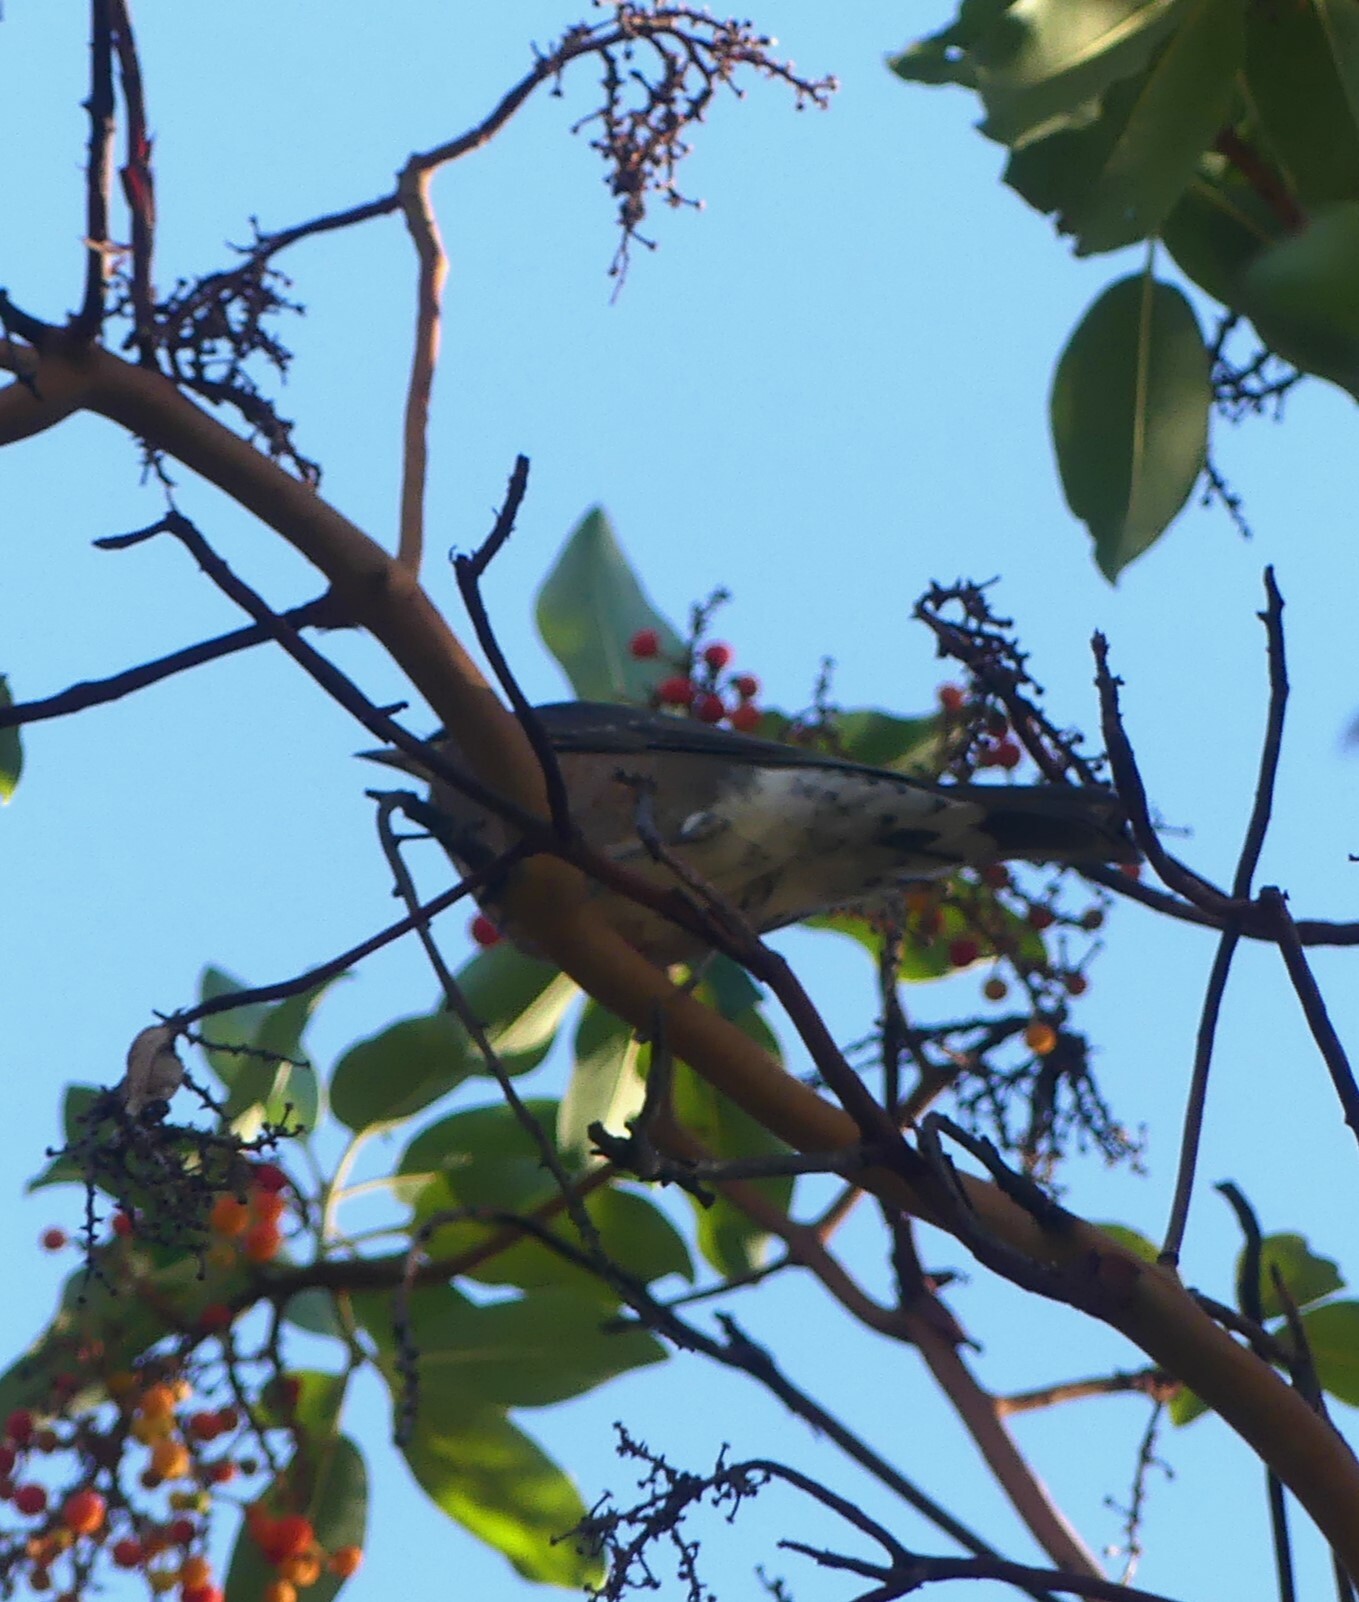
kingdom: Animalia
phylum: Chordata
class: Aves
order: Passeriformes
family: Turdidae
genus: Turdus
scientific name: Turdus migratorius
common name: American robin
